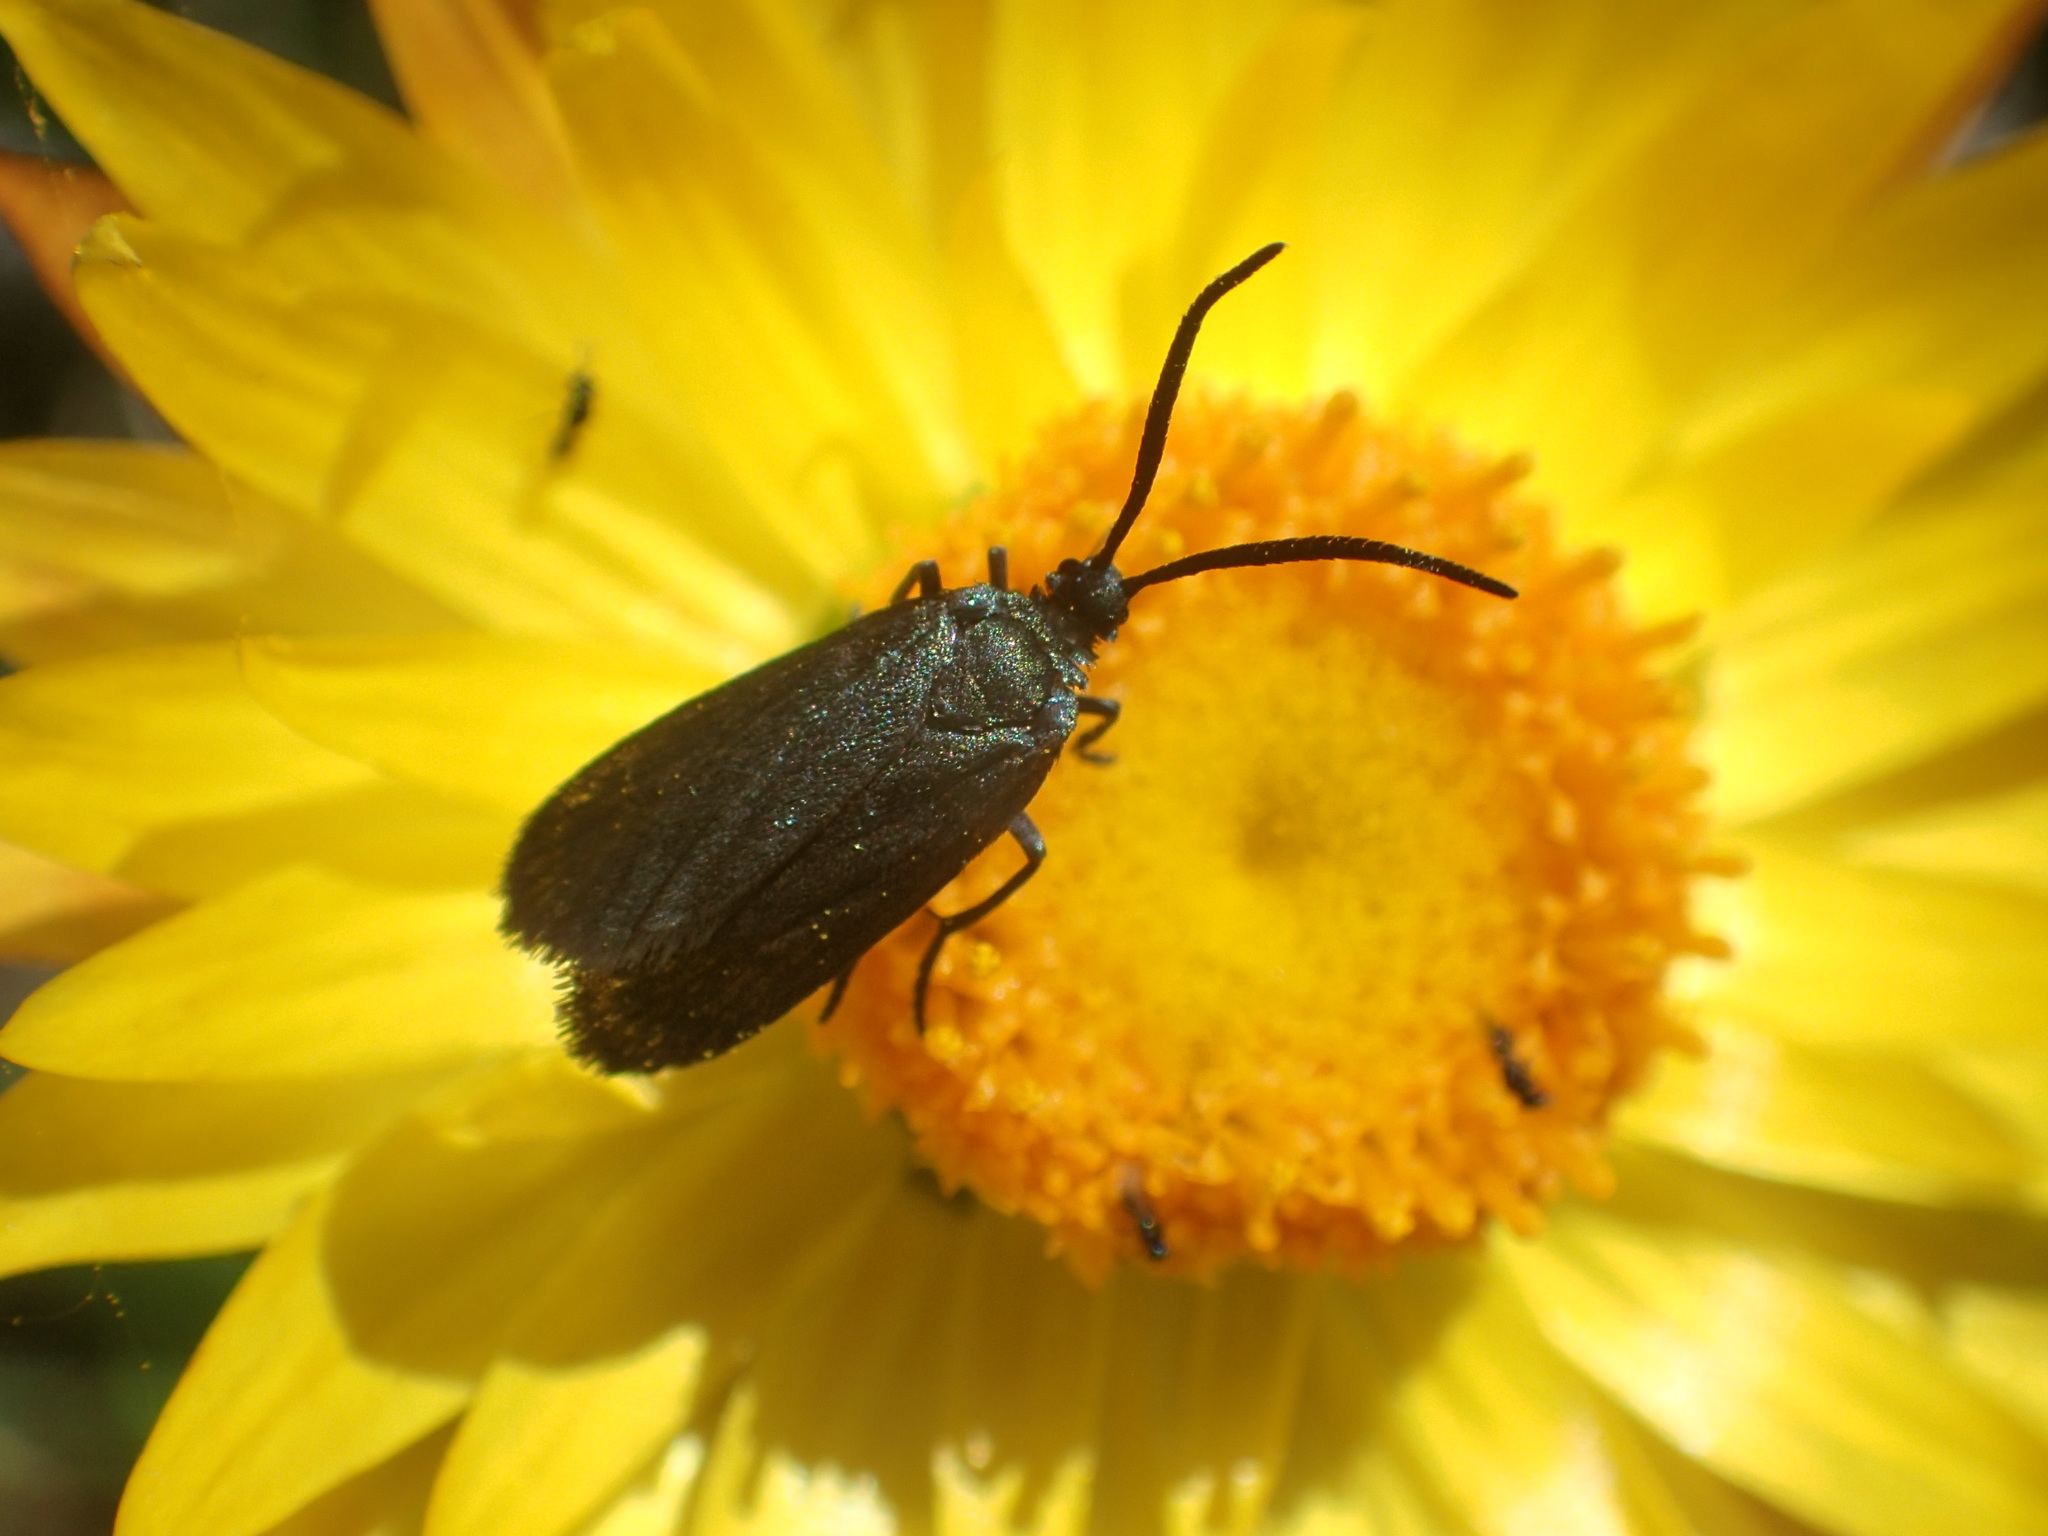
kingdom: Animalia
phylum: Arthropoda
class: Insecta
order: Lepidoptera
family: Zygaenidae
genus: Turneriprocris
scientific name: Turneriprocris dolens
